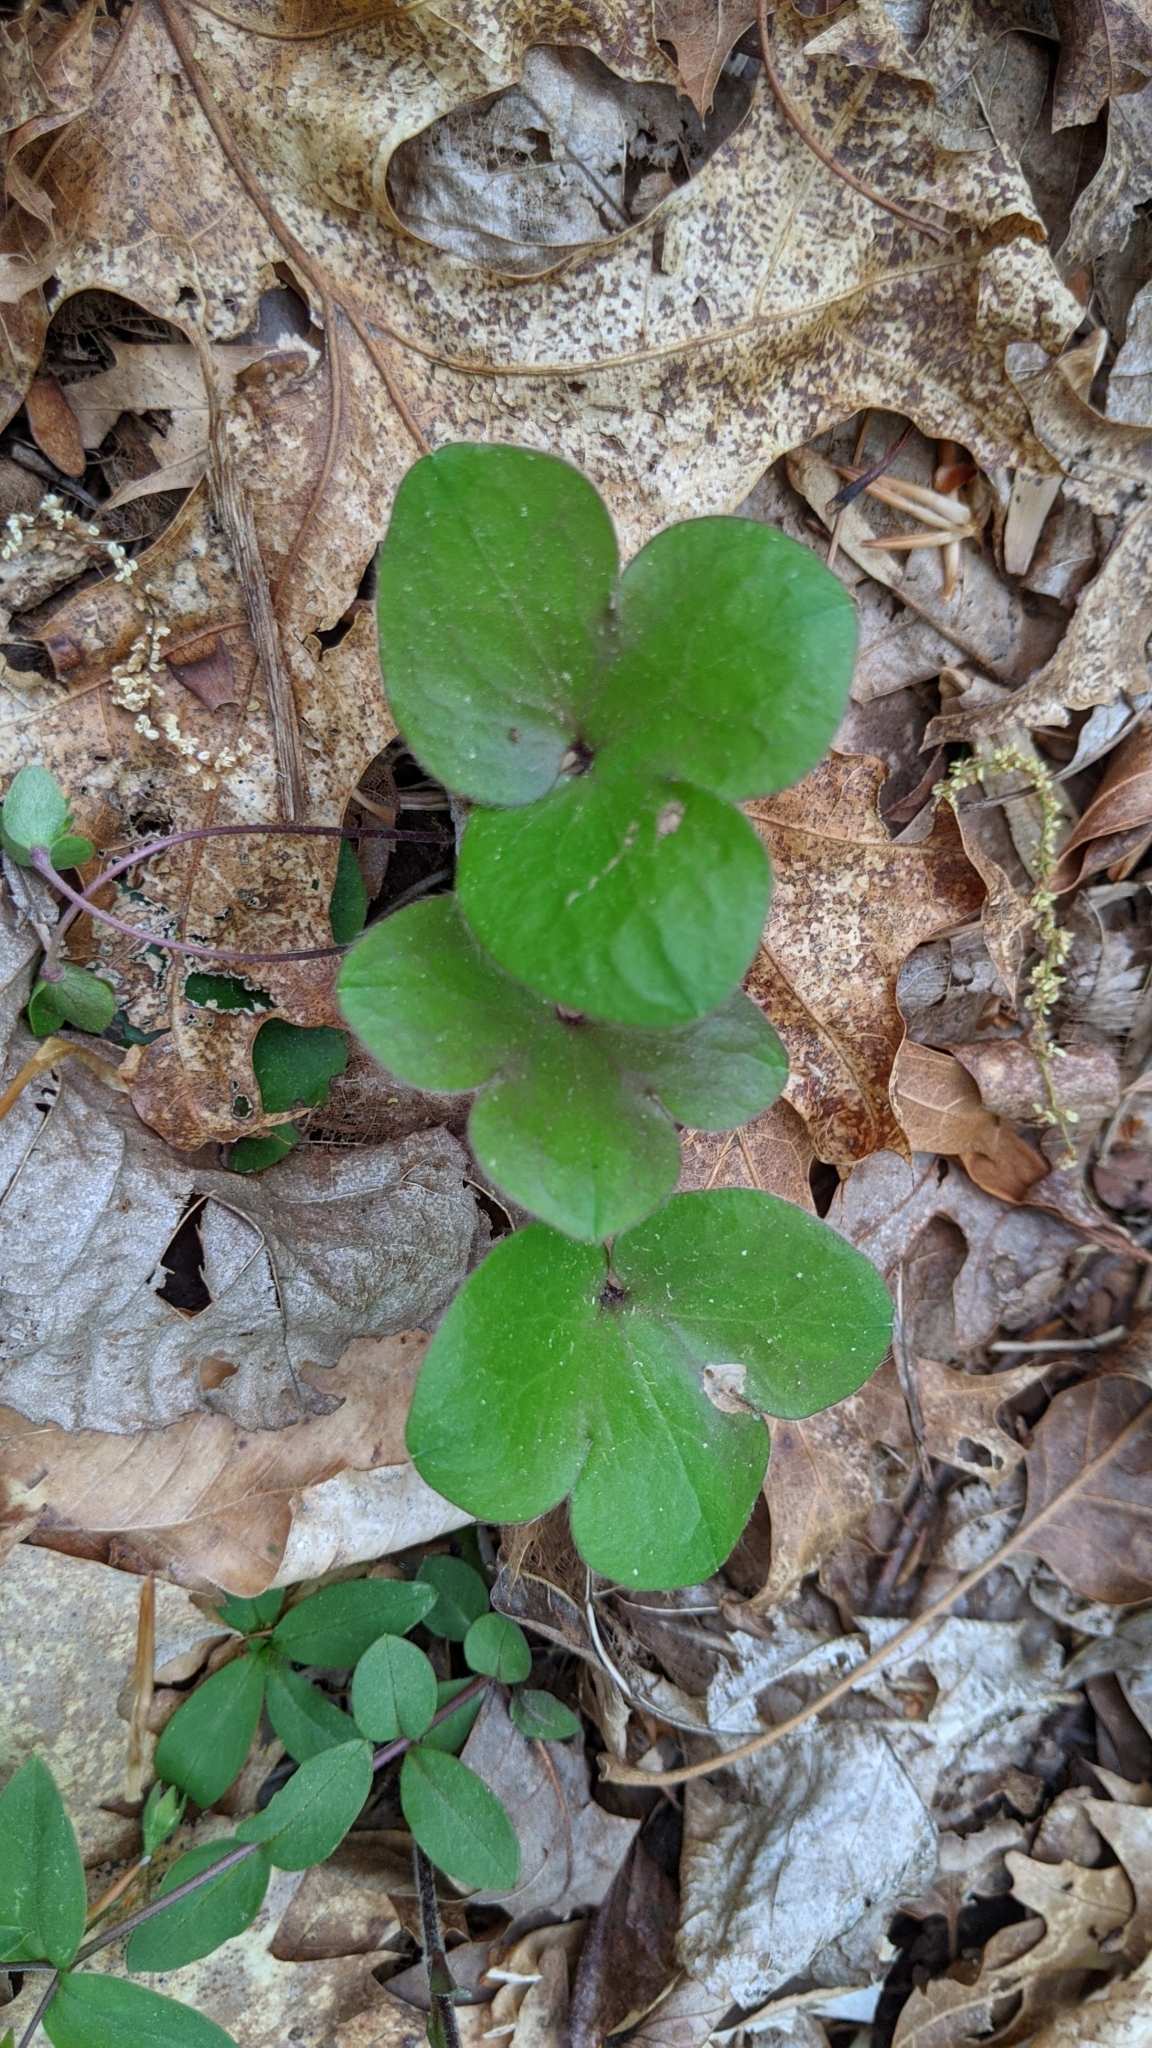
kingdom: Plantae
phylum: Tracheophyta
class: Magnoliopsida
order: Ranunculales
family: Ranunculaceae
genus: Hepatica
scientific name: Hepatica americana
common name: American hepatica
